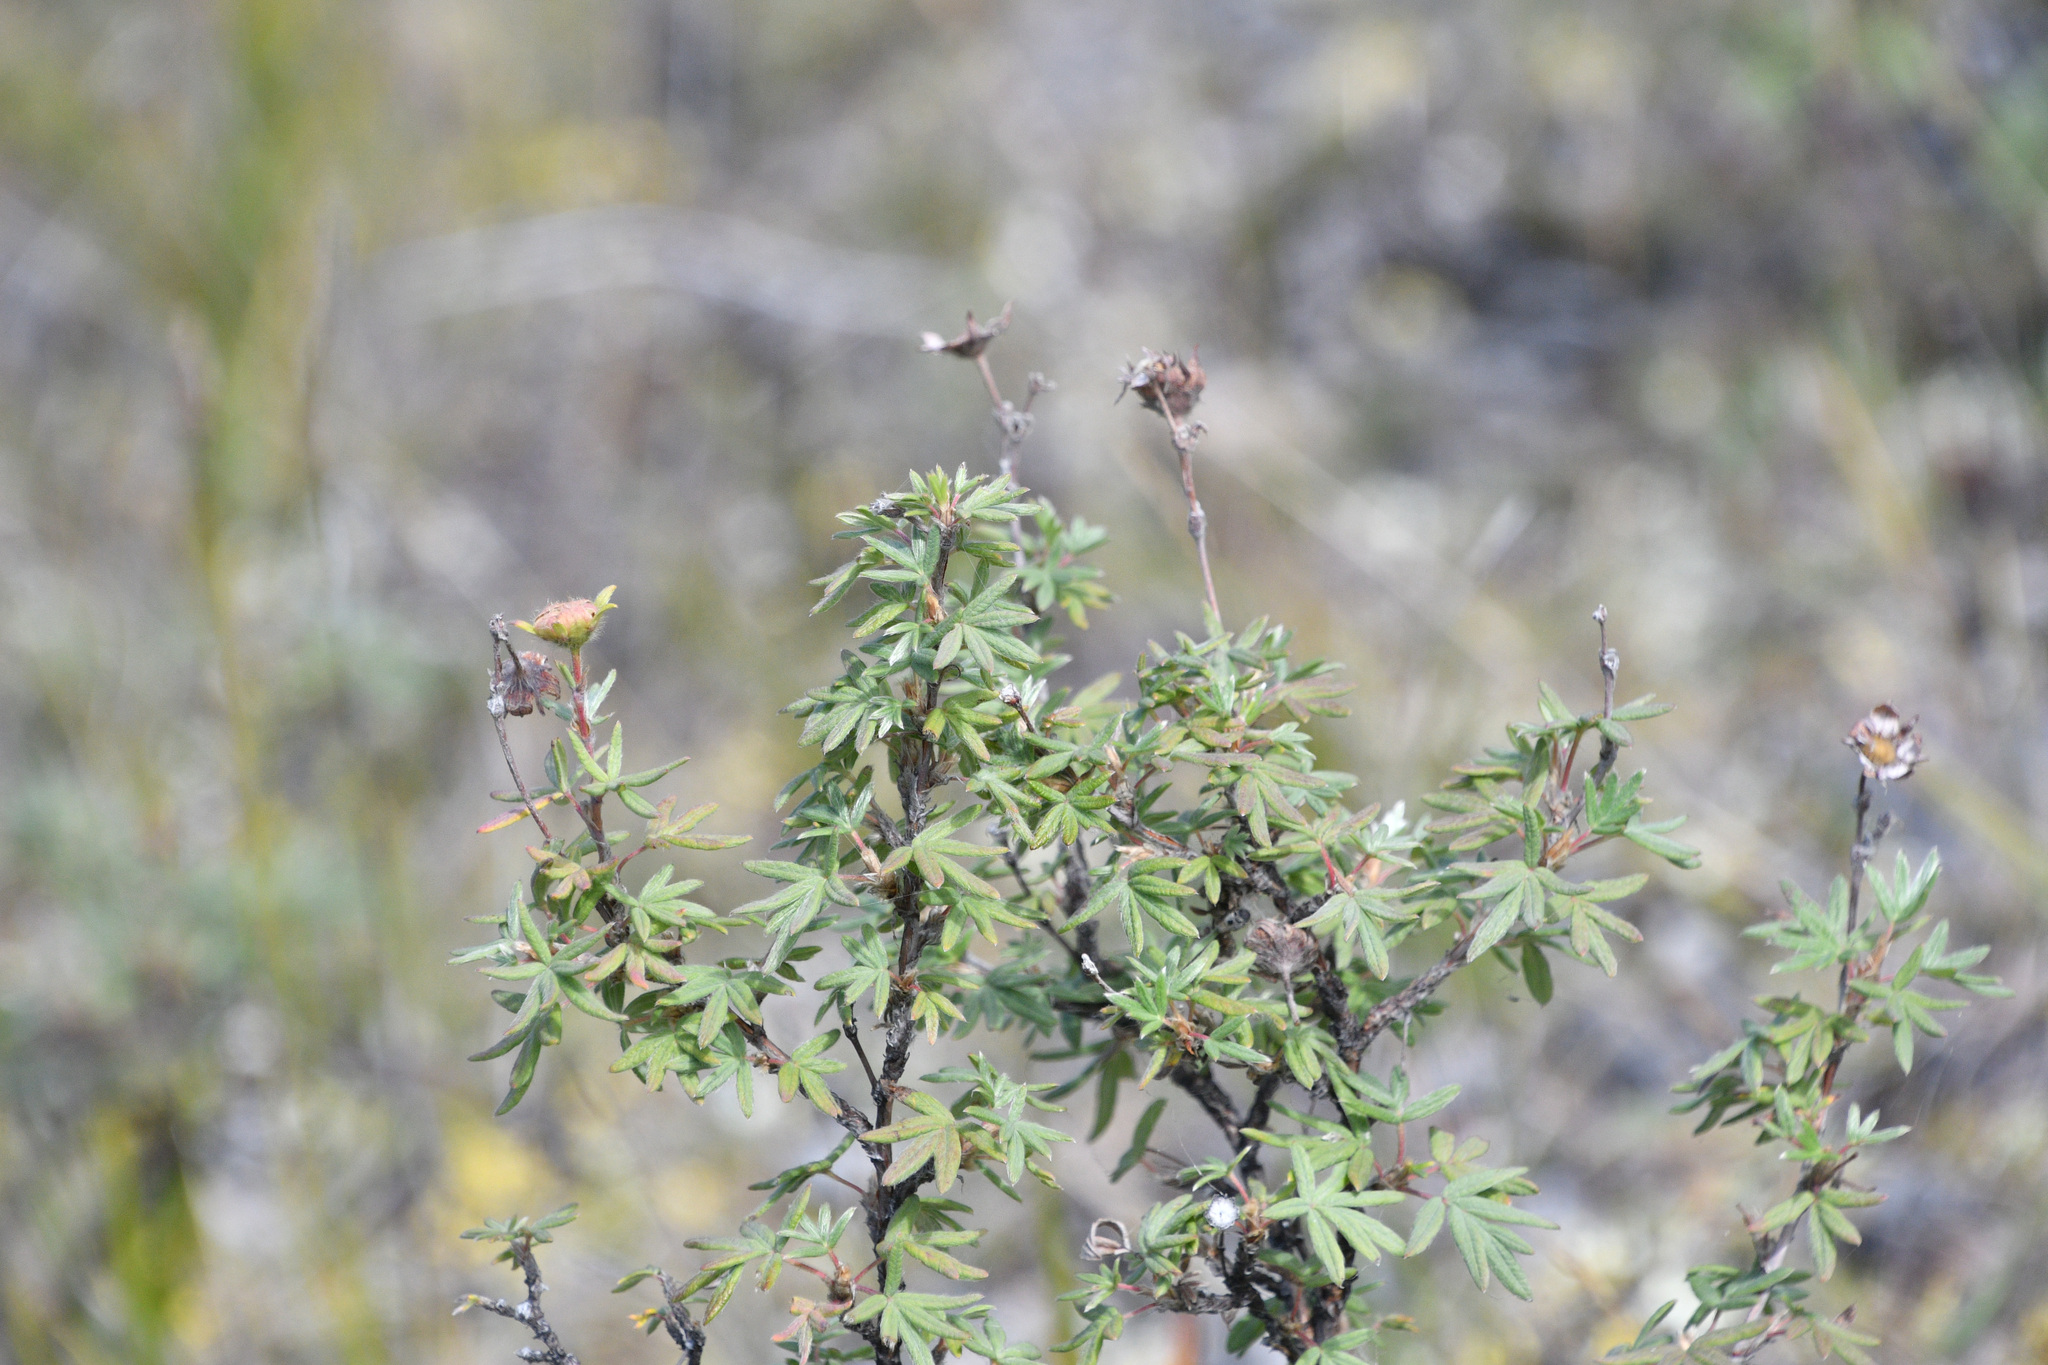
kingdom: Plantae
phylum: Tracheophyta
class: Magnoliopsida
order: Rosales
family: Rosaceae
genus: Dasiphora
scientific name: Dasiphora fruticosa
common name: Shrubby cinquefoil
